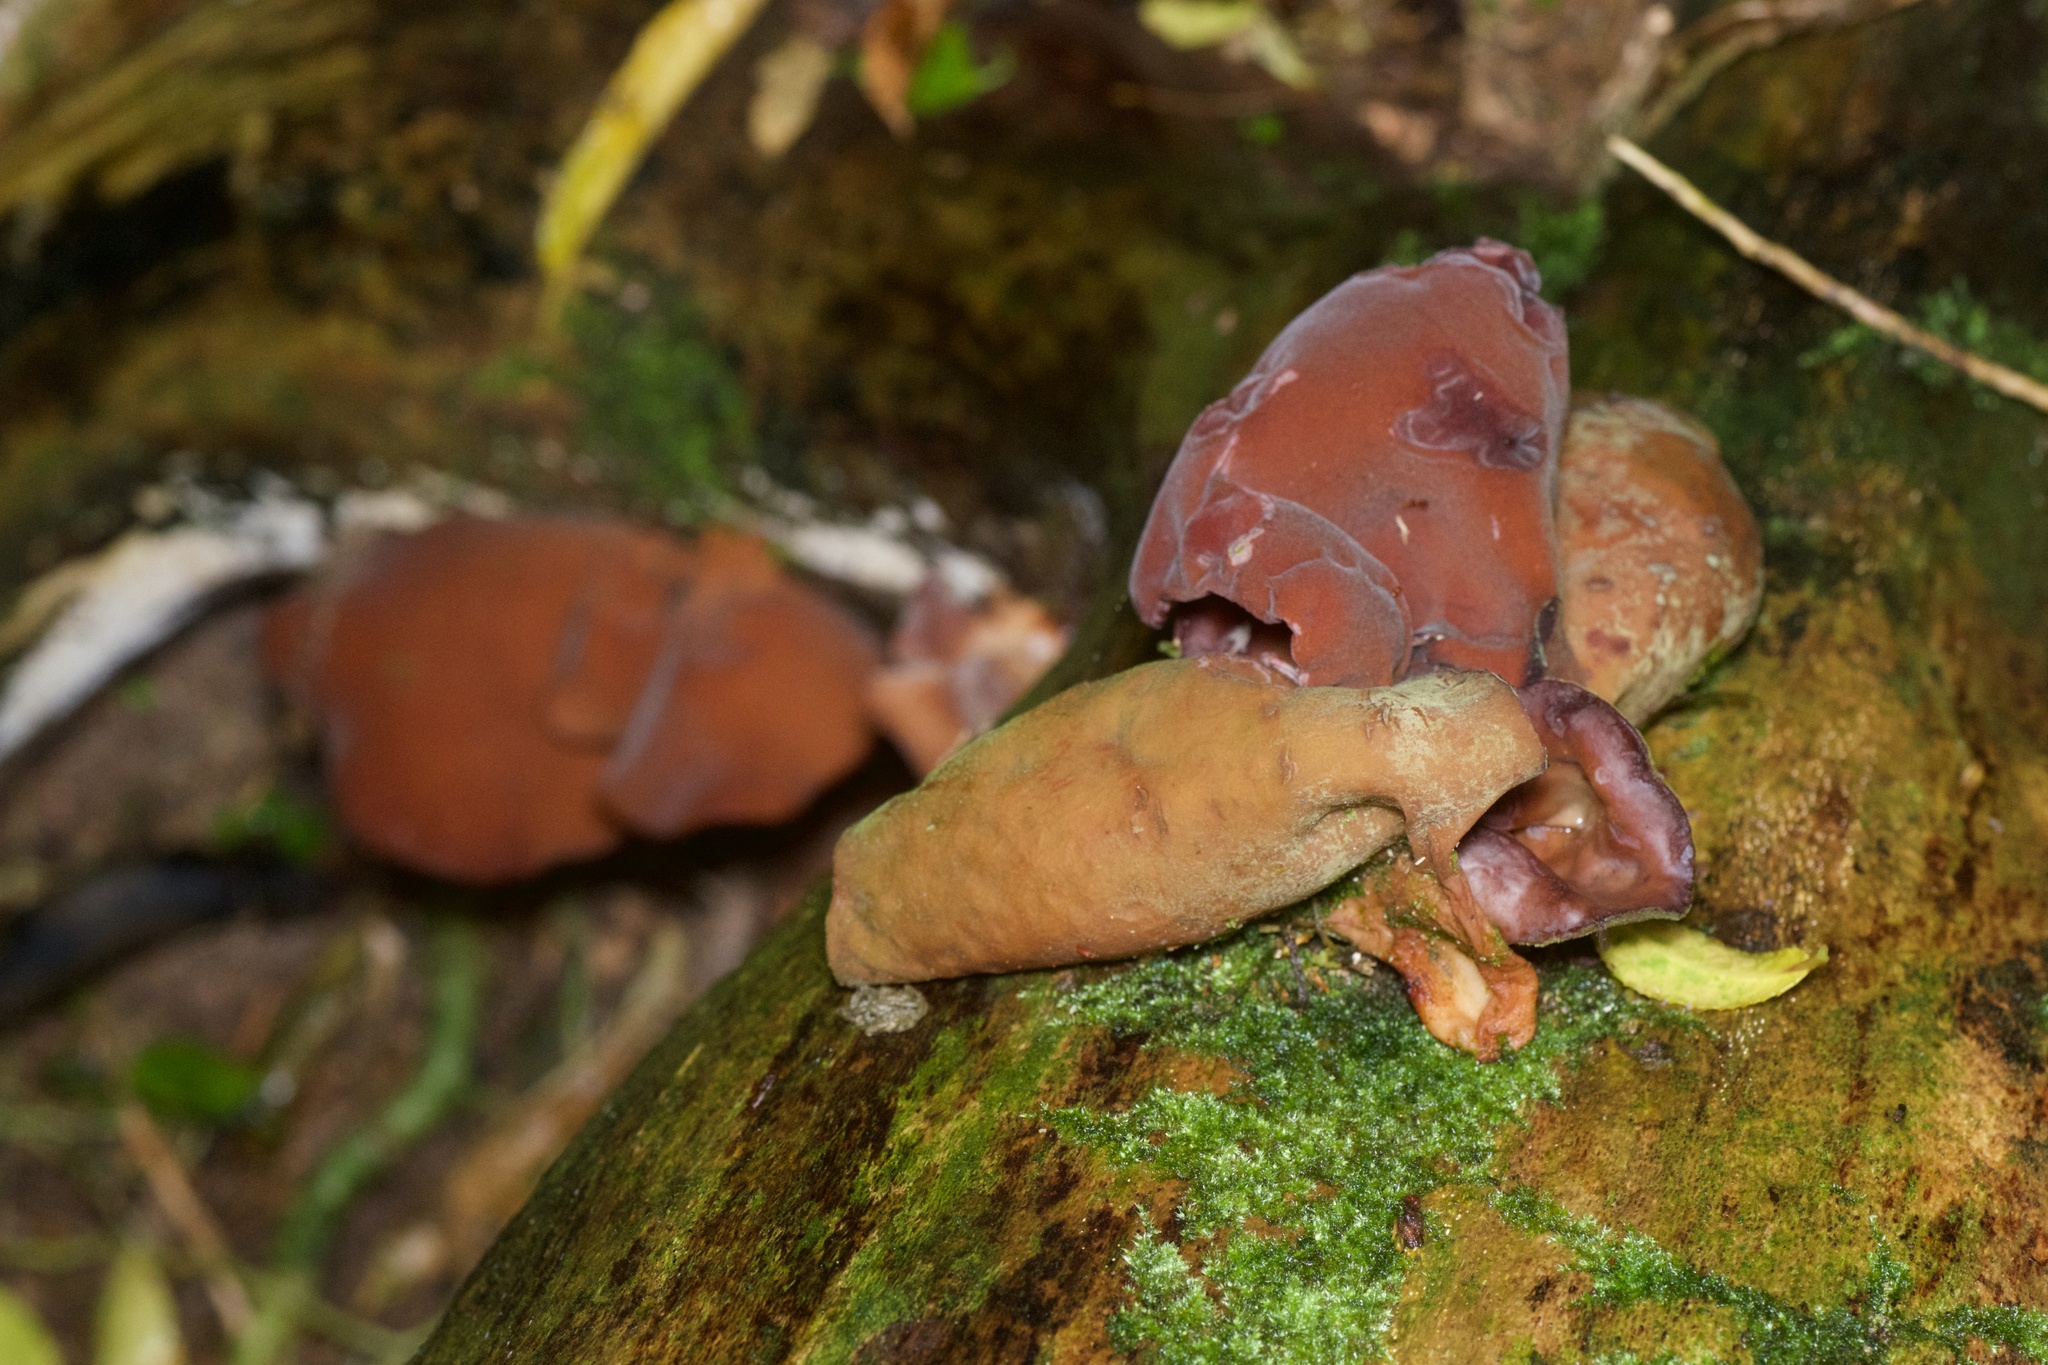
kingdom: Fungi
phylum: Basidiomycota
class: Agaricomycetes
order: Auriculariales
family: Auriculariaceae
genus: Auricularia
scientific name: Auricularia cornea
